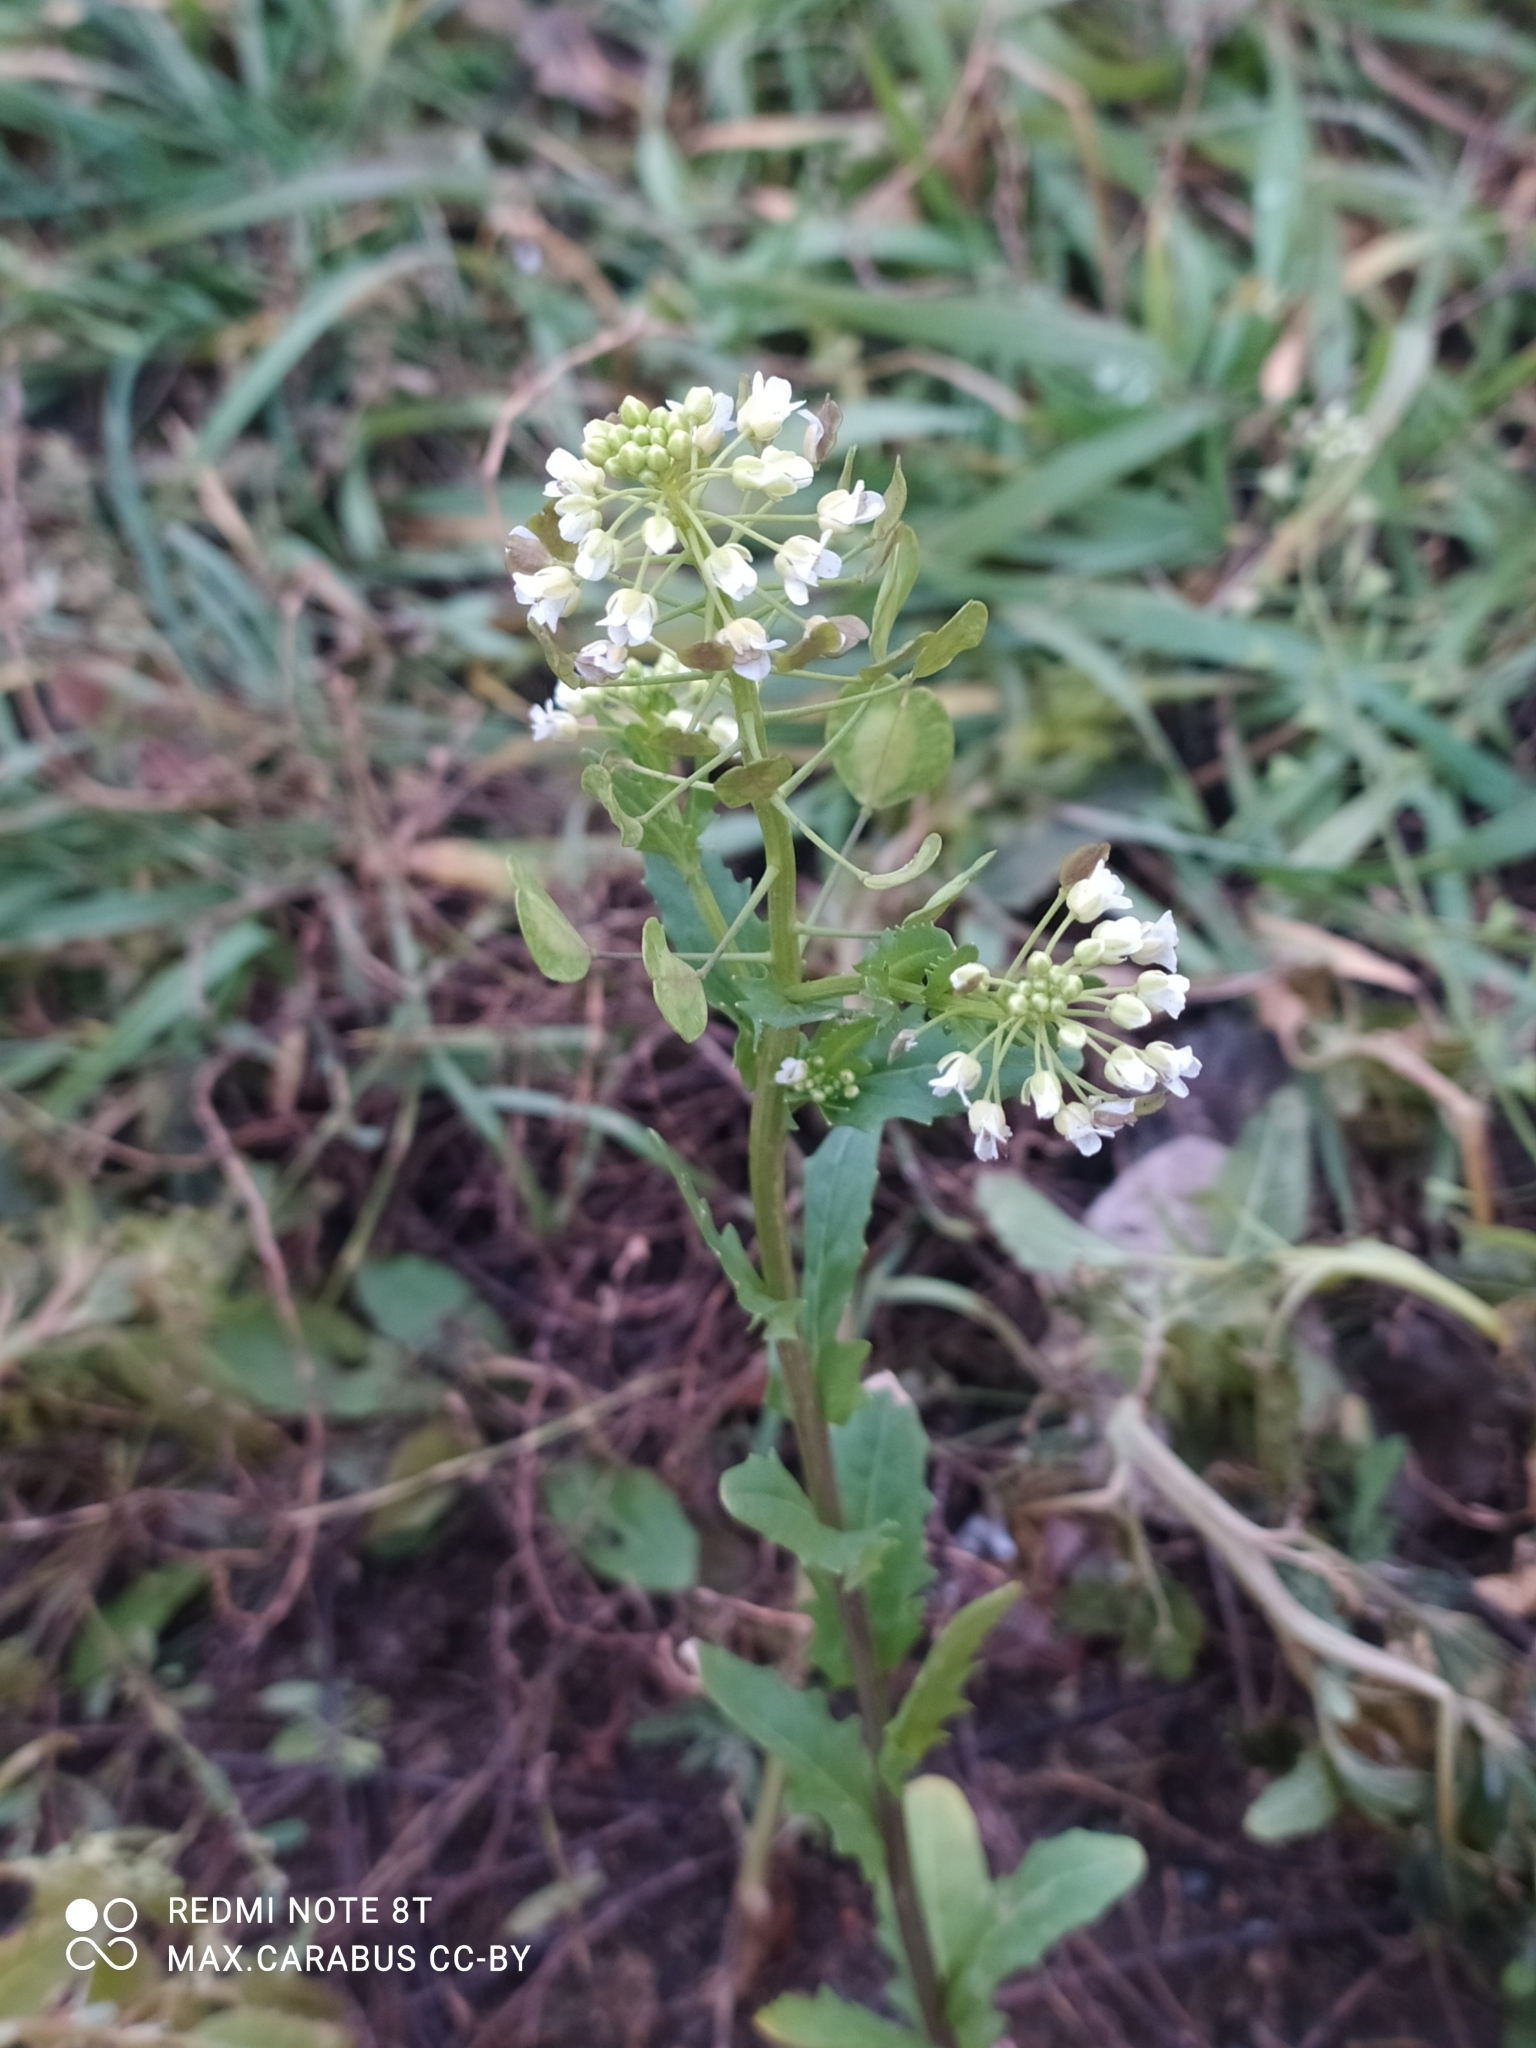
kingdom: Plantae
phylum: Tracheophyta
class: Magnoliopsida
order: Brassicales
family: Brassicaceae
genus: Thlaspi
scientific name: Thlaspi arvense
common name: Field pennycress
